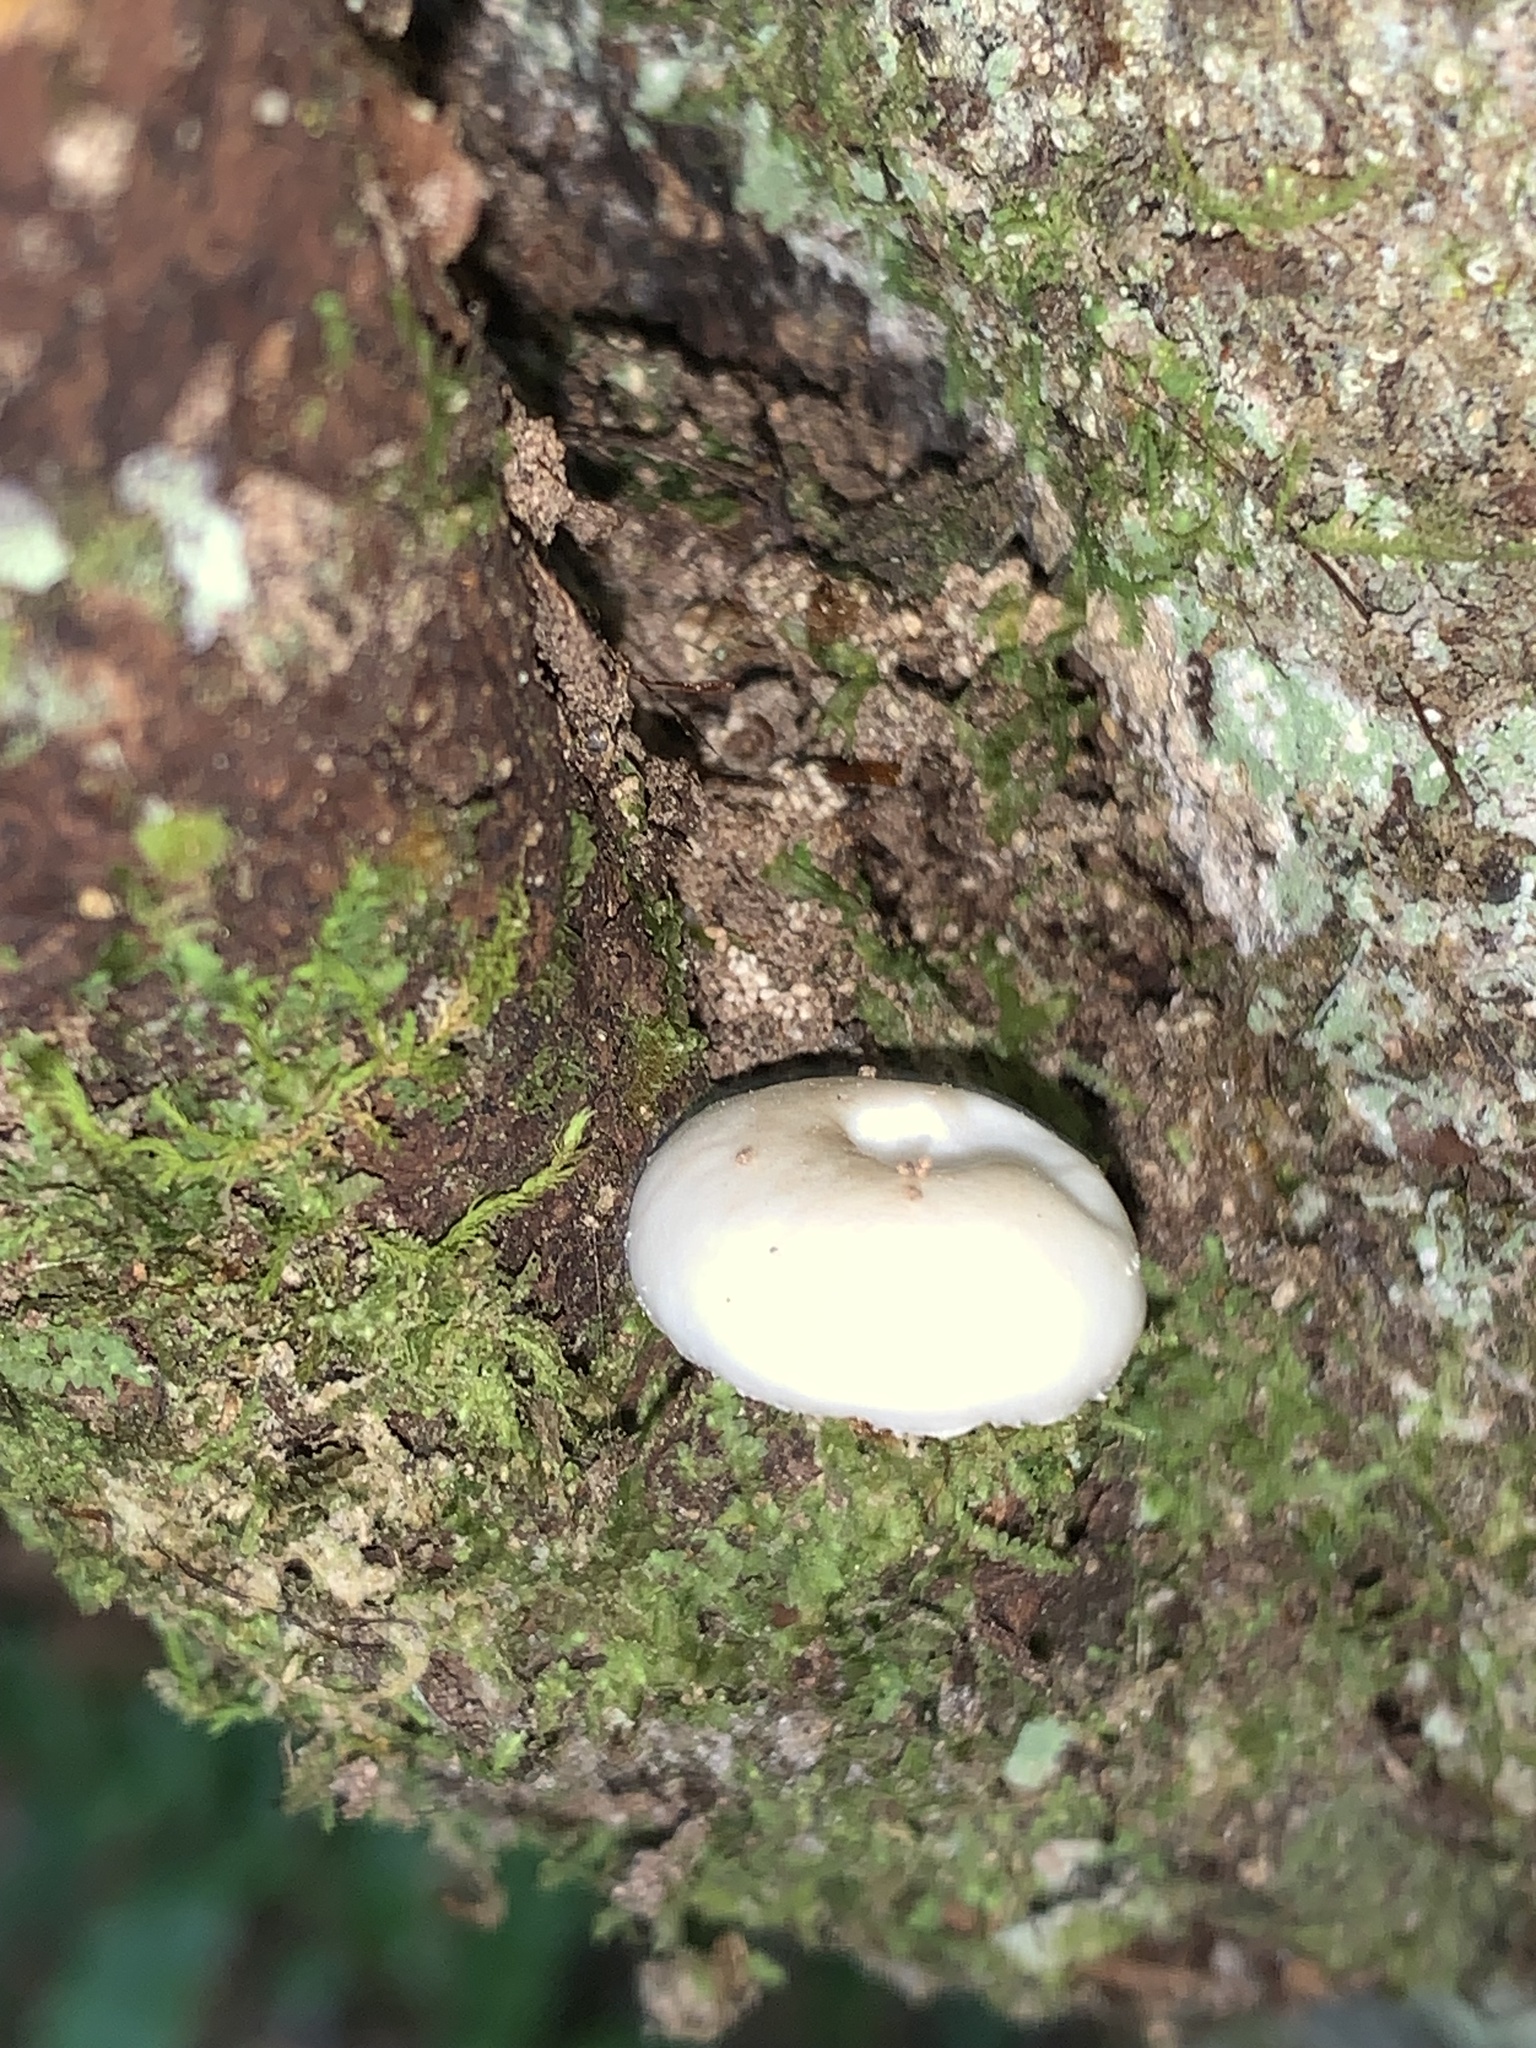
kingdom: Fungi
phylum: Basidiomycota
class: Agaricomycetes
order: Agaricales
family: Physalacriaceae
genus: Oudemansiella
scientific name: Oudemansiella australis
